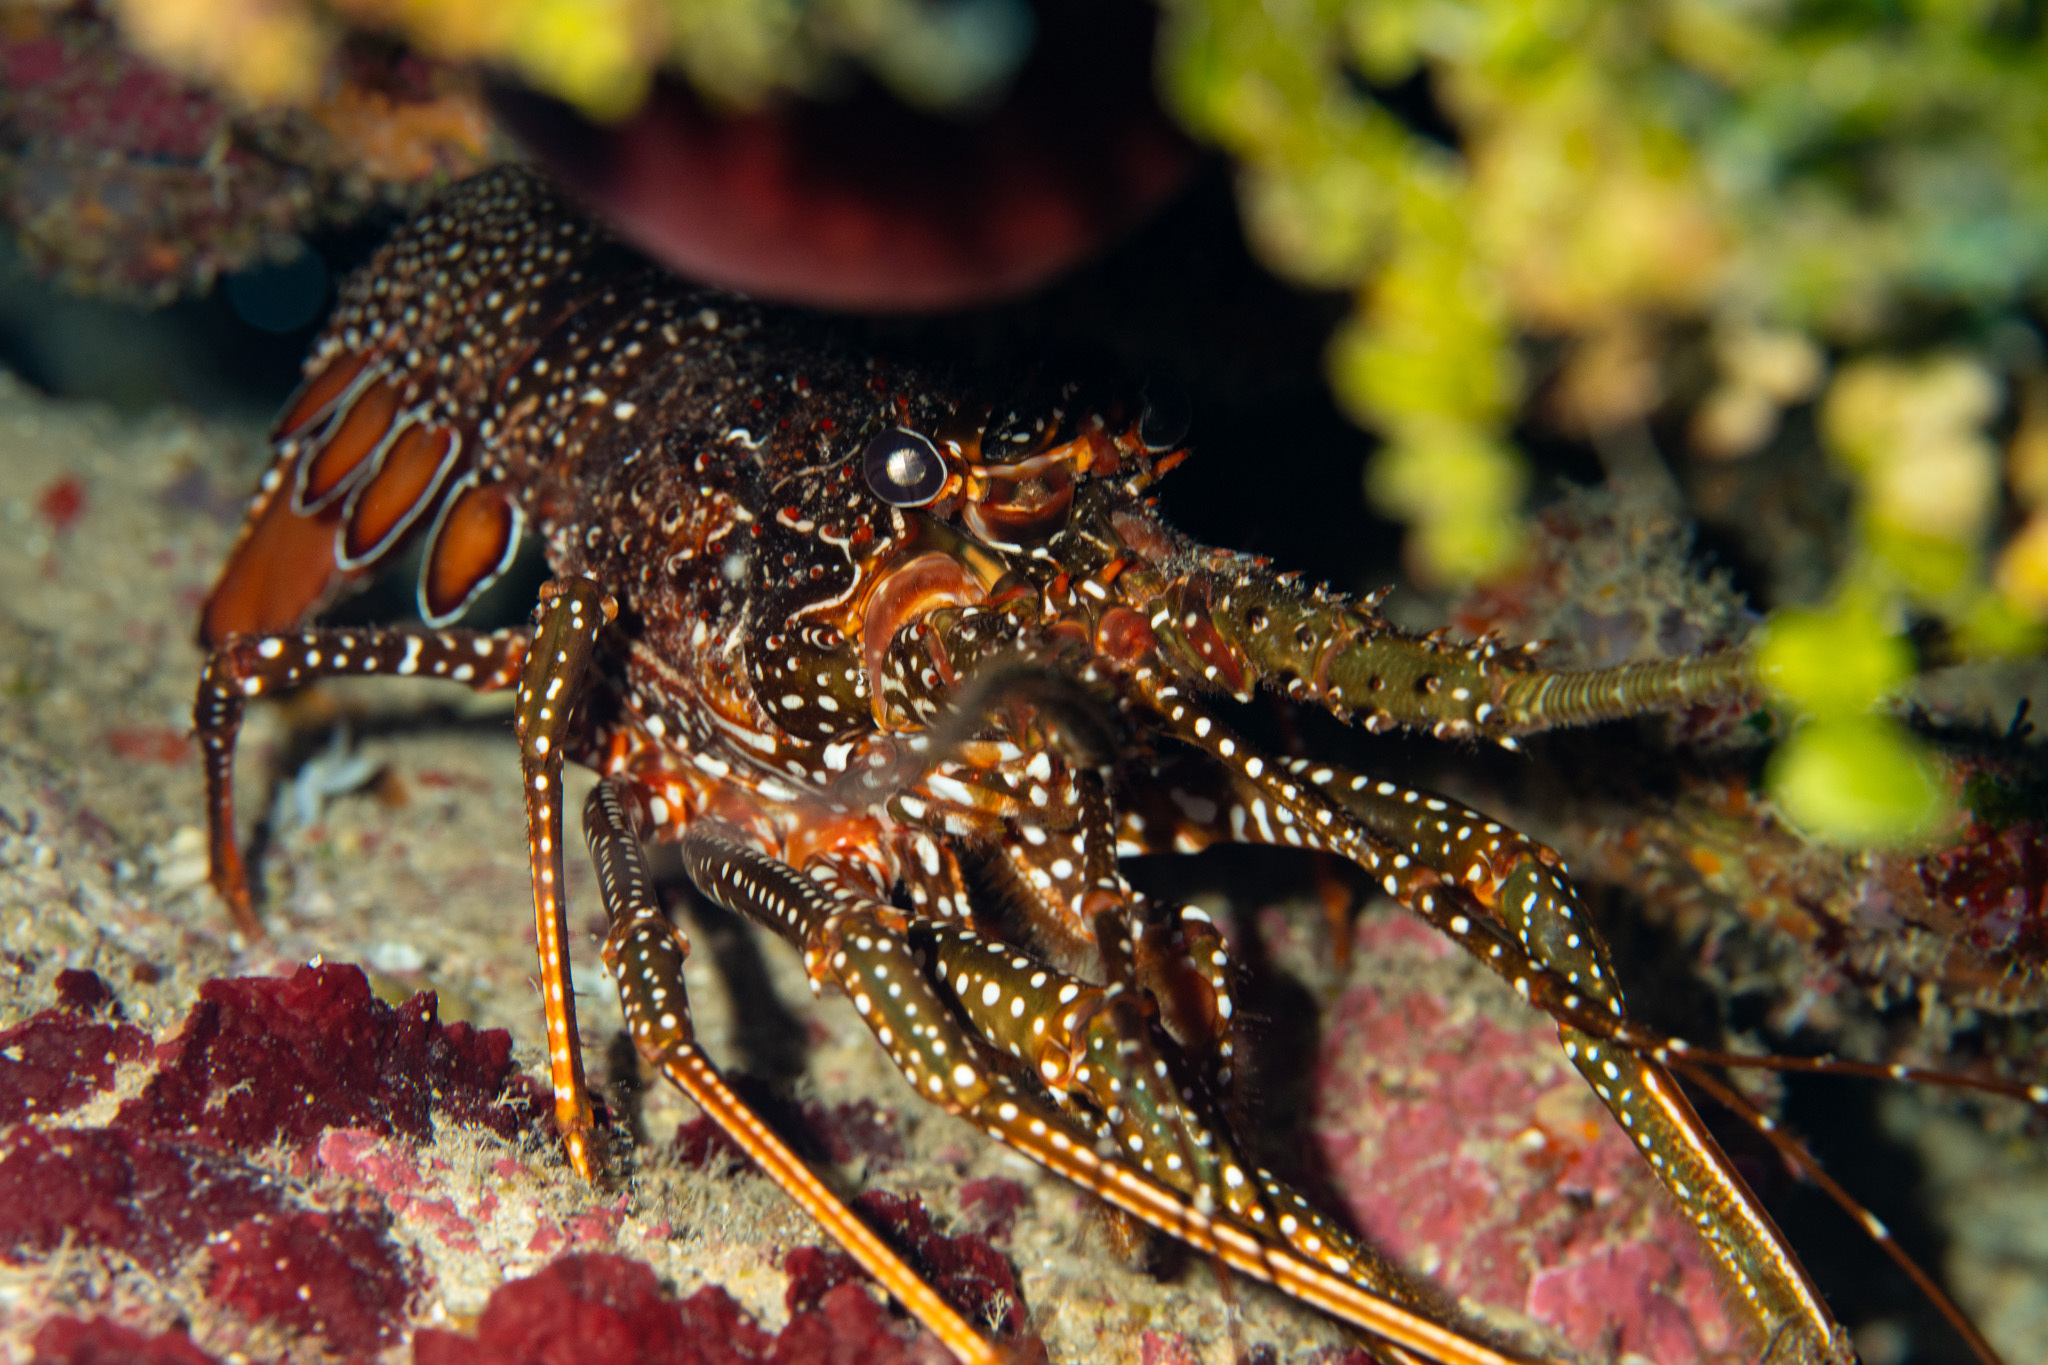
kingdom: Animalia
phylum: Arthropoda
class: Malacostraca
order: Decapoda
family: Palinuridae
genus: Panulirus
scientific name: Panulirus guttatus
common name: Spotted spiny lobster
